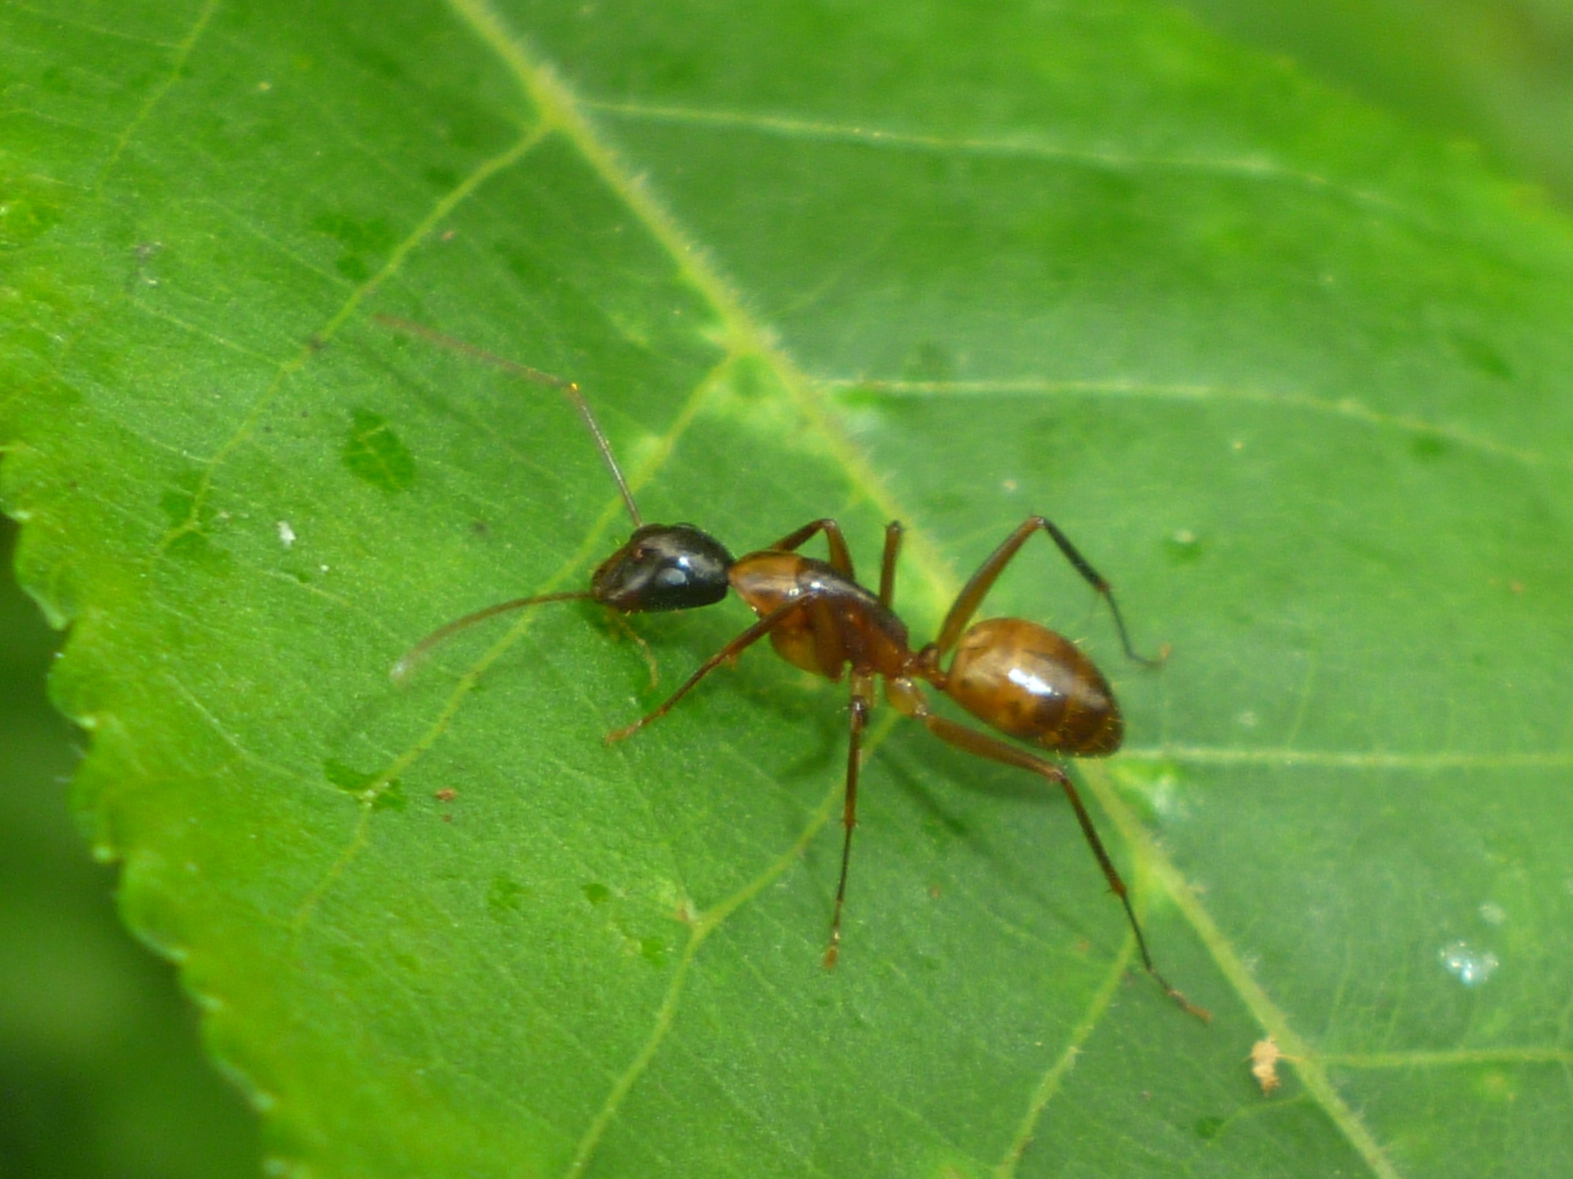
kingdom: Animalia
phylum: Arthropoda
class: Insecta
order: Hymenoptera
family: Formicidae
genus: Camponotus
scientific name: Camponotus americanus
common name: American carpenter ant
